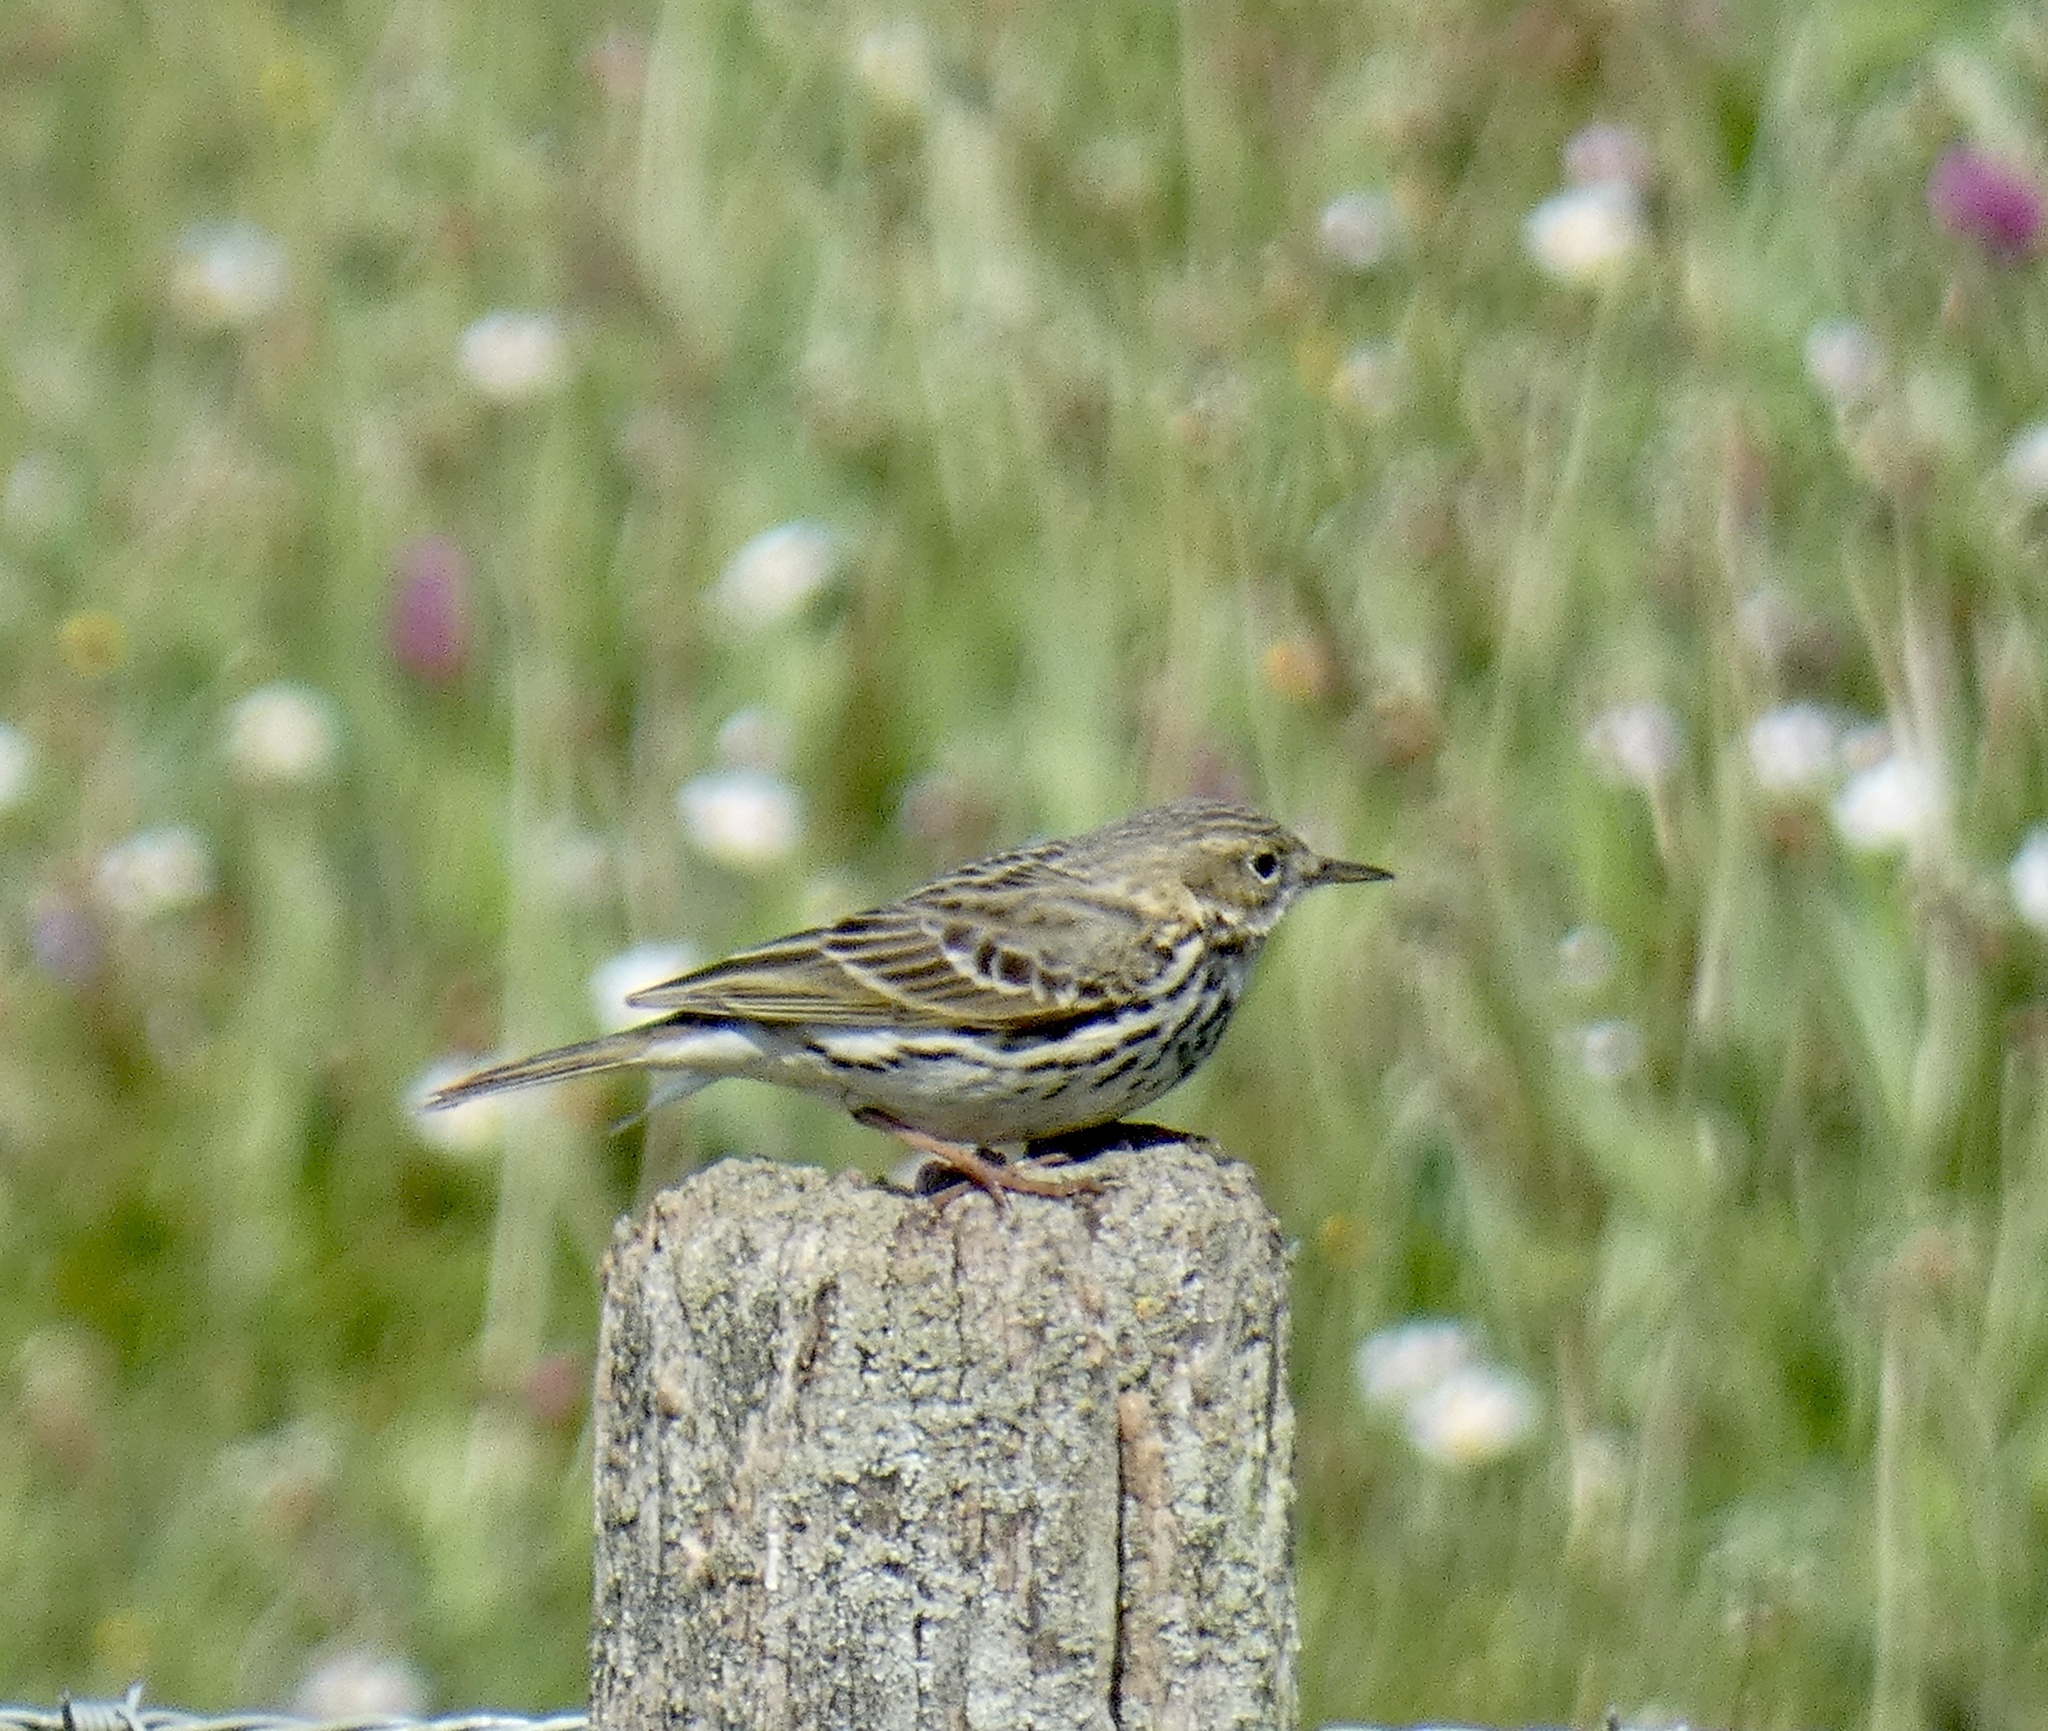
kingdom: Animalia
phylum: Chordata
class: Aves
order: Passeriformes
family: Motacillidae
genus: Anthus
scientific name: Anthus pratensis
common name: Meadow pipit
